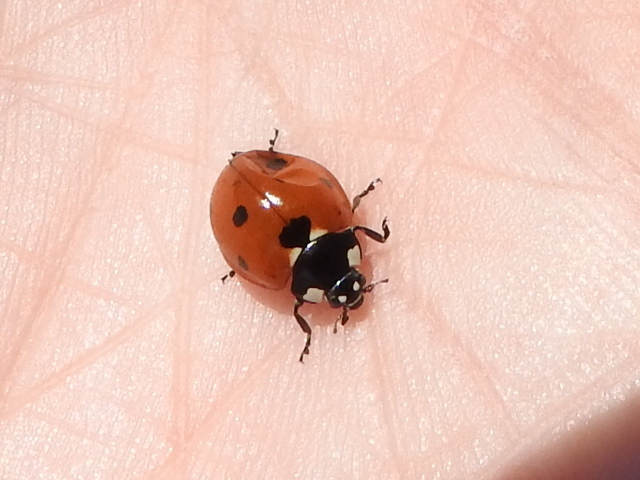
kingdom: Animalia
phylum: Arthropoda
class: Insecta
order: Coleoptera
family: Coccinellidae
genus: Coccinella
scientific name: Coccinella septempunctata
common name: Sevenspotted lady beetle
